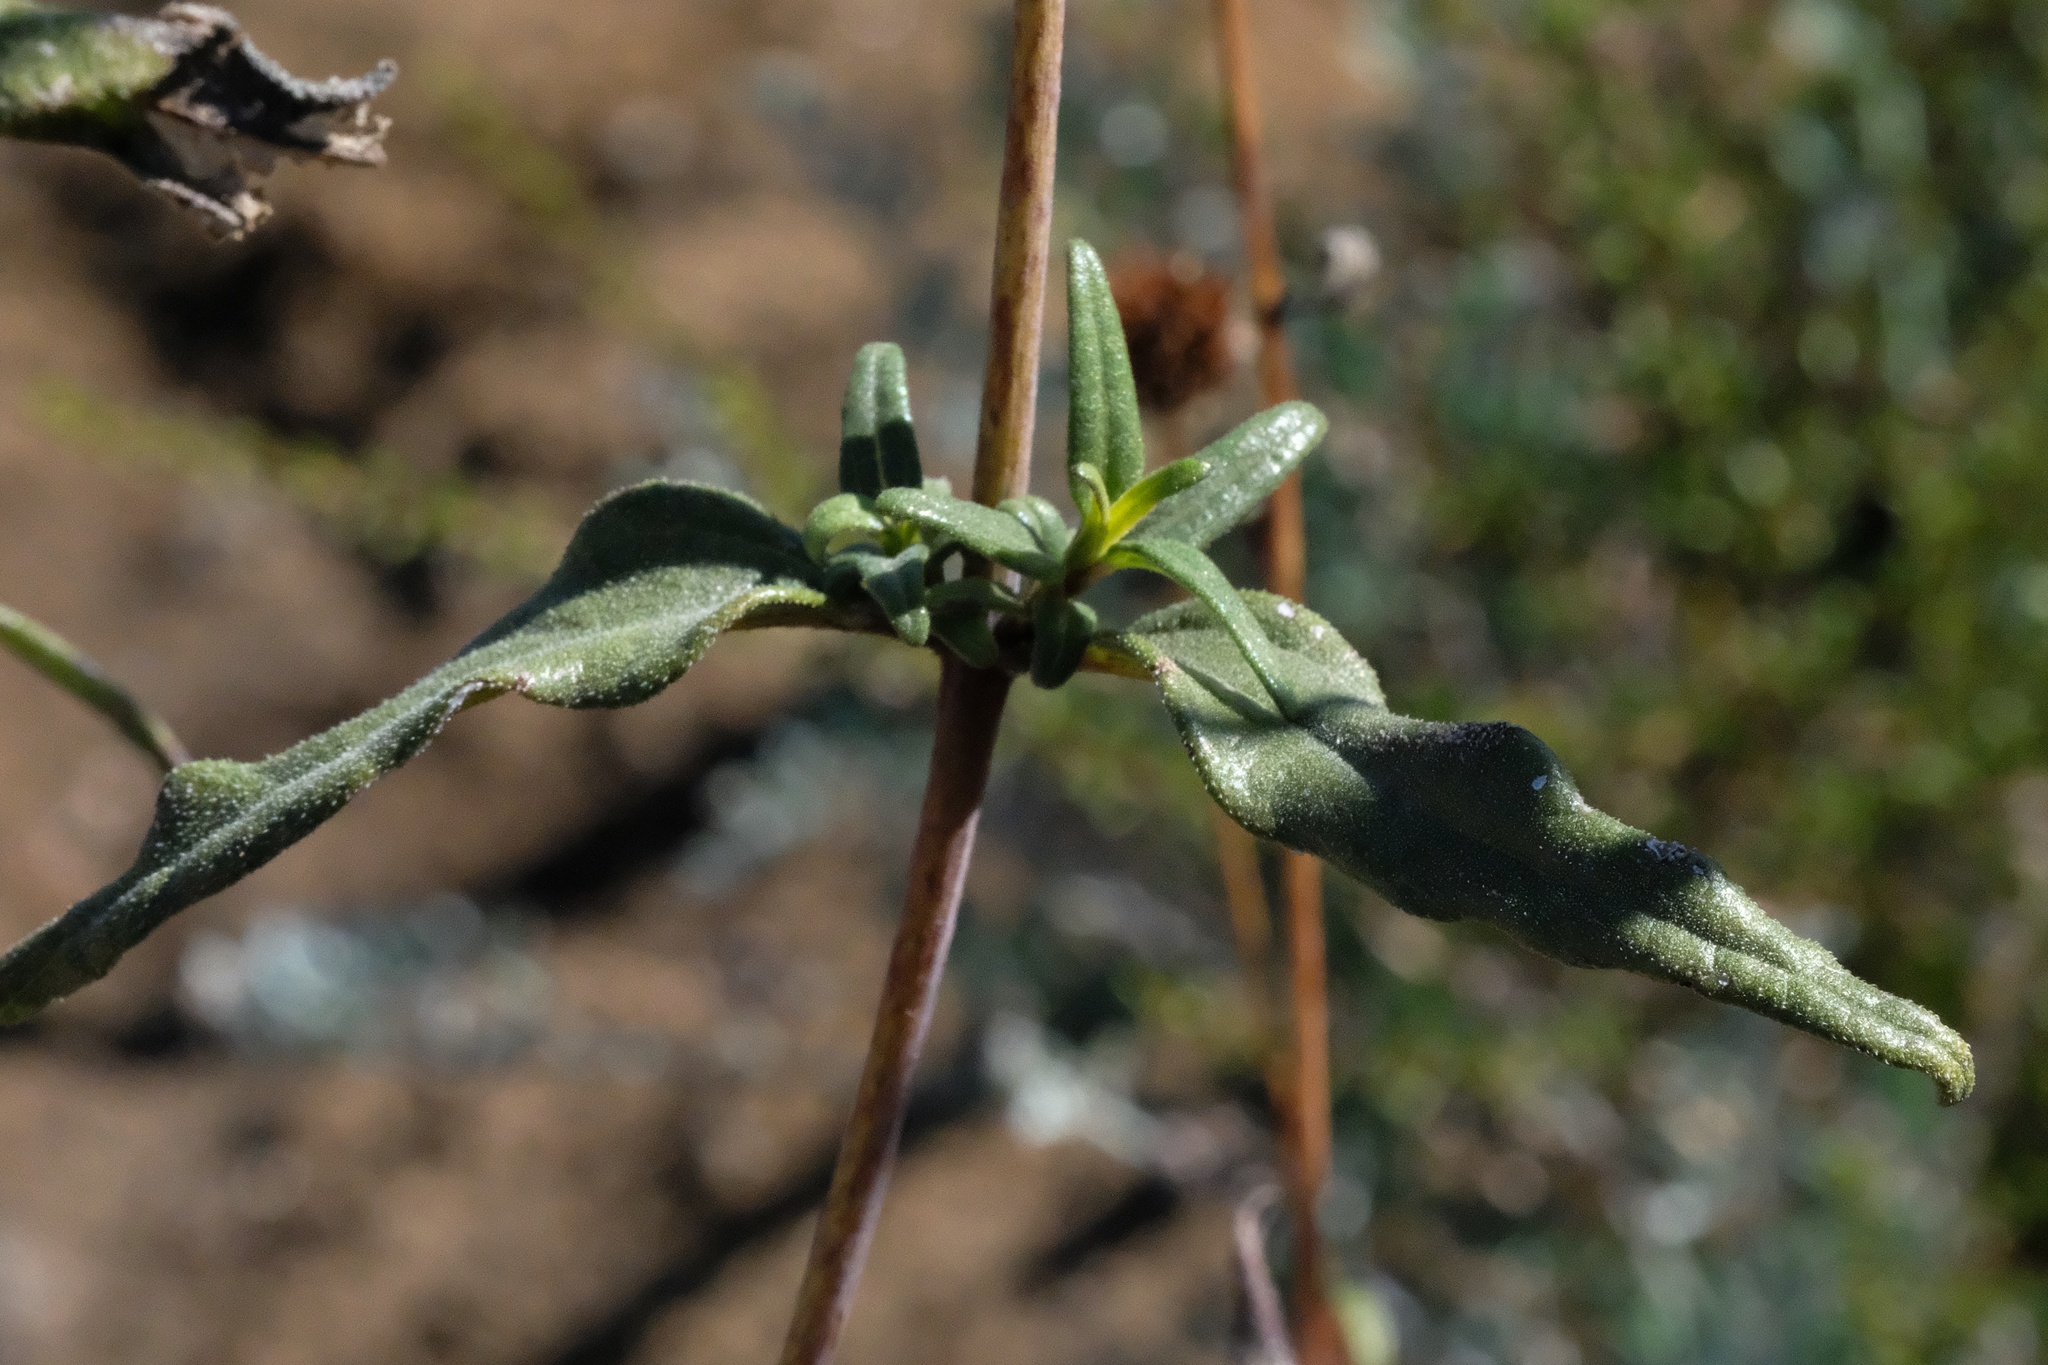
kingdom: Plantae
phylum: Tracheophyta
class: Magnoliopsida
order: Asterales
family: Asteraceae
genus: Helianthus
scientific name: Helianthus gracilentus
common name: Slender sunflower
